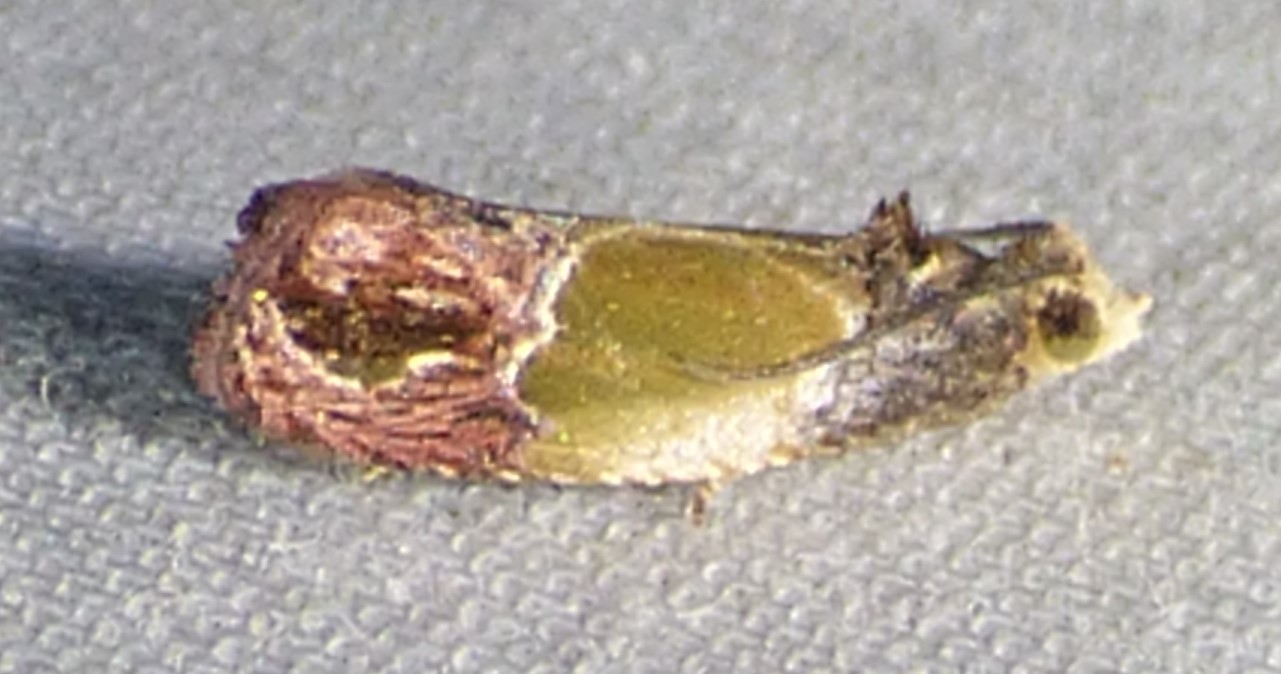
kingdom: Animalia
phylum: Arthropoda
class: Insecta
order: Lepidoptera
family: Tortricidae
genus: Eumarozia
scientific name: Eumarozia malachitana
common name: Sculptured moth
